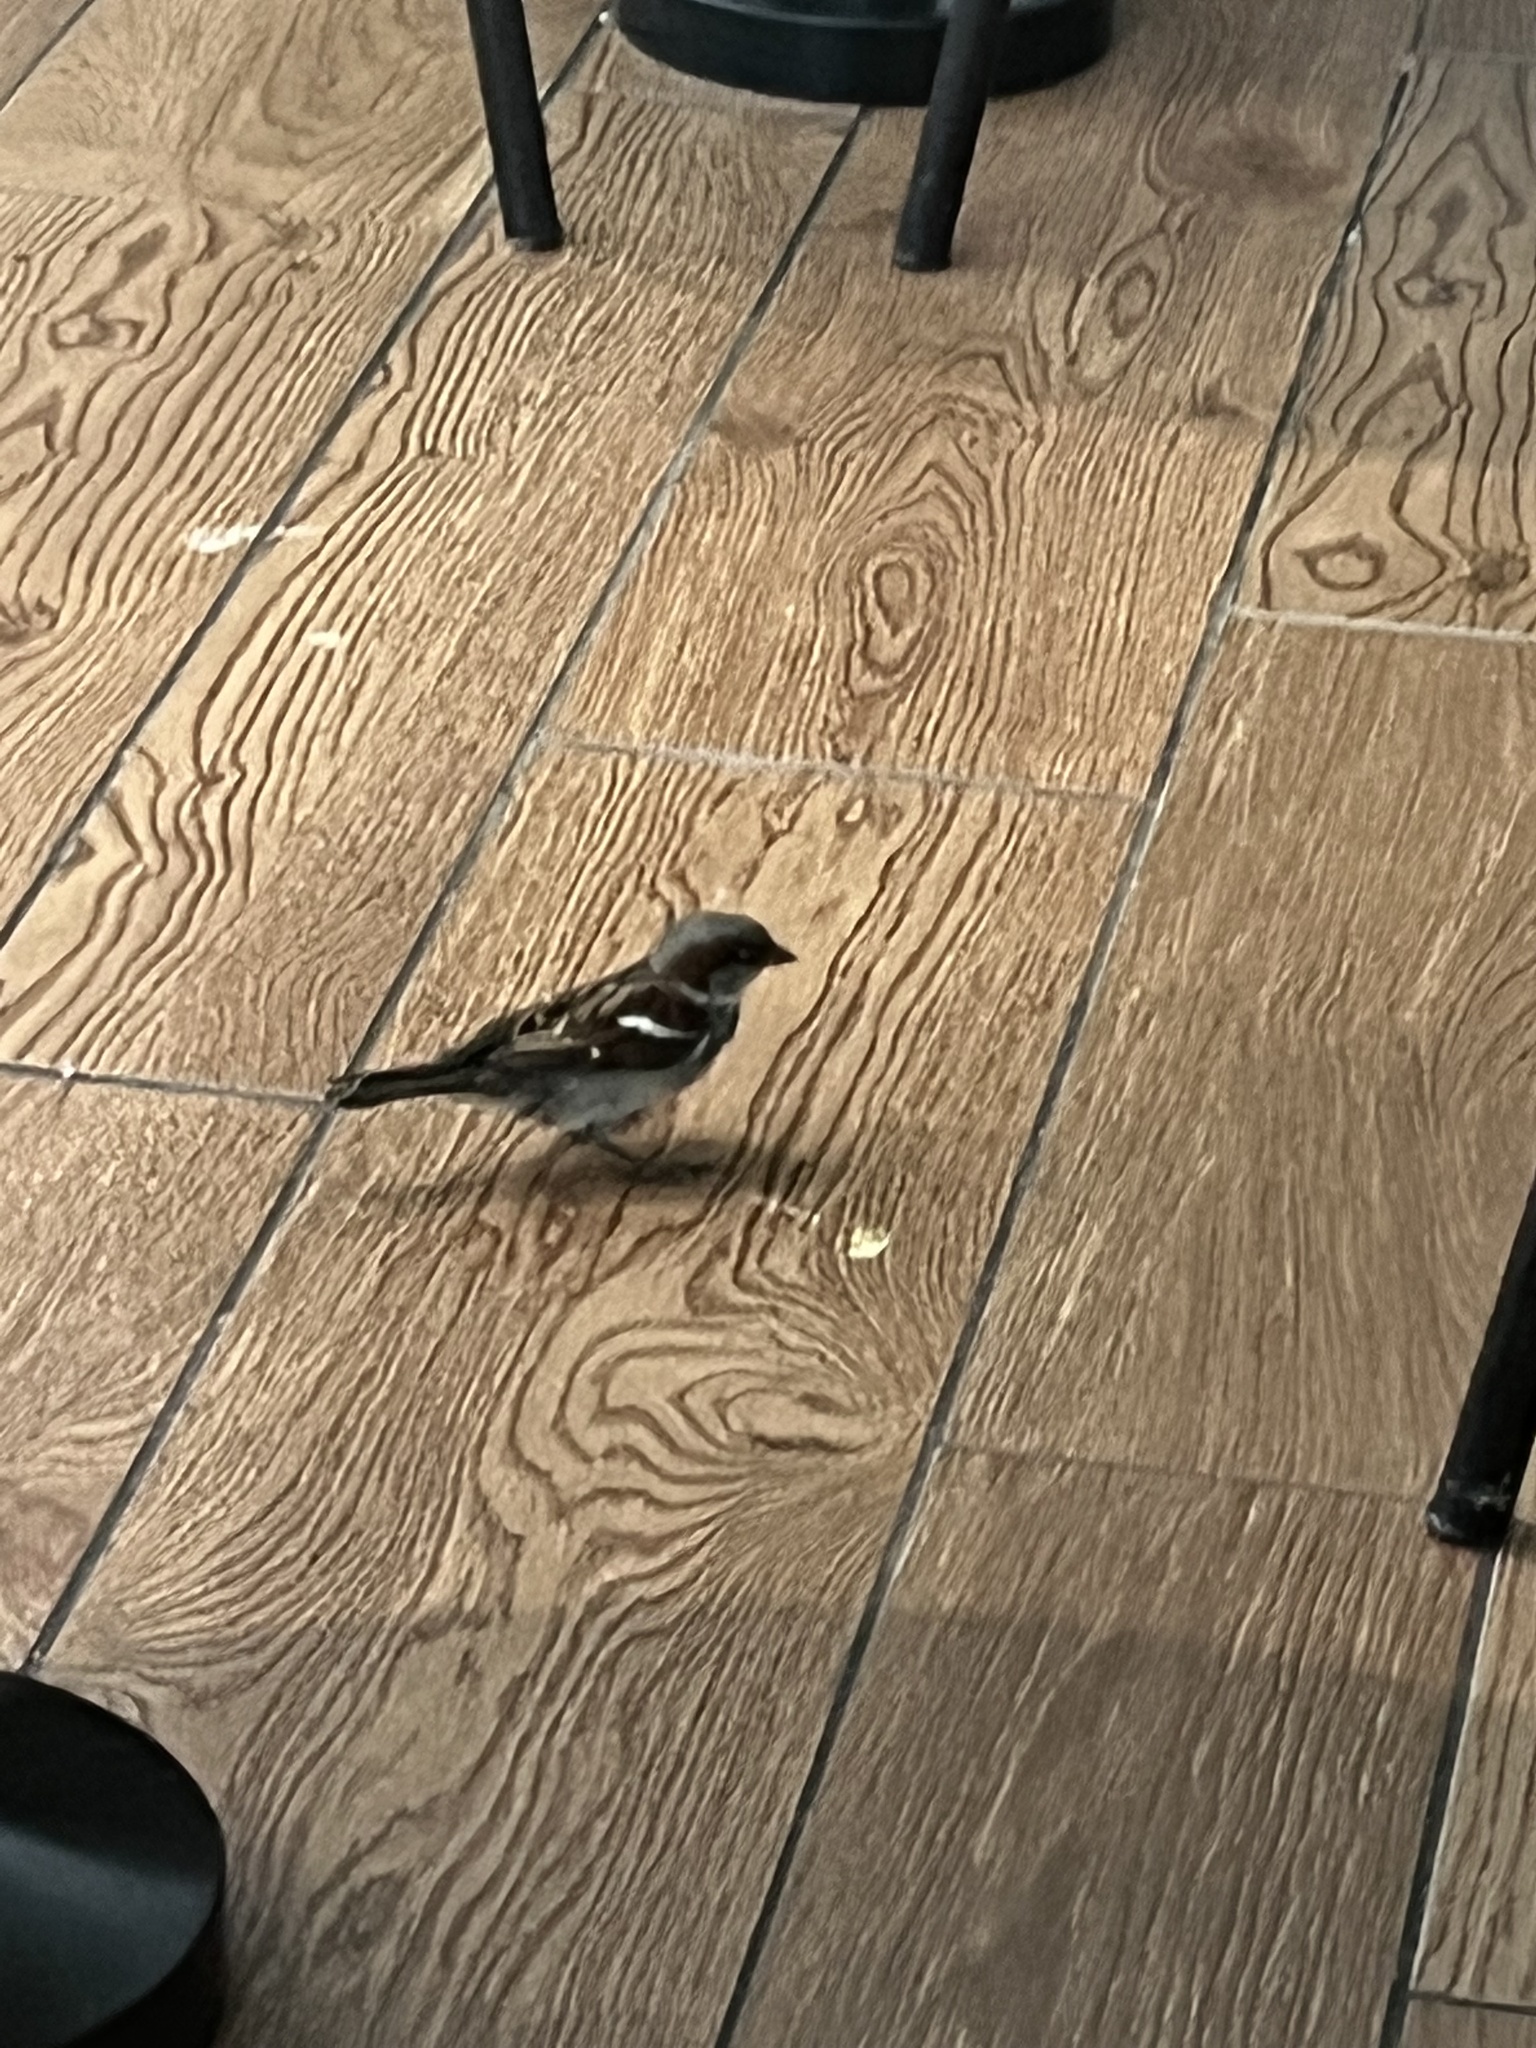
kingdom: Animalia
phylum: Chordata
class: Aves
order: Passeriformes
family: Passeridae
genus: Passer
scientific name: Passer domesticus
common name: House sparrow
